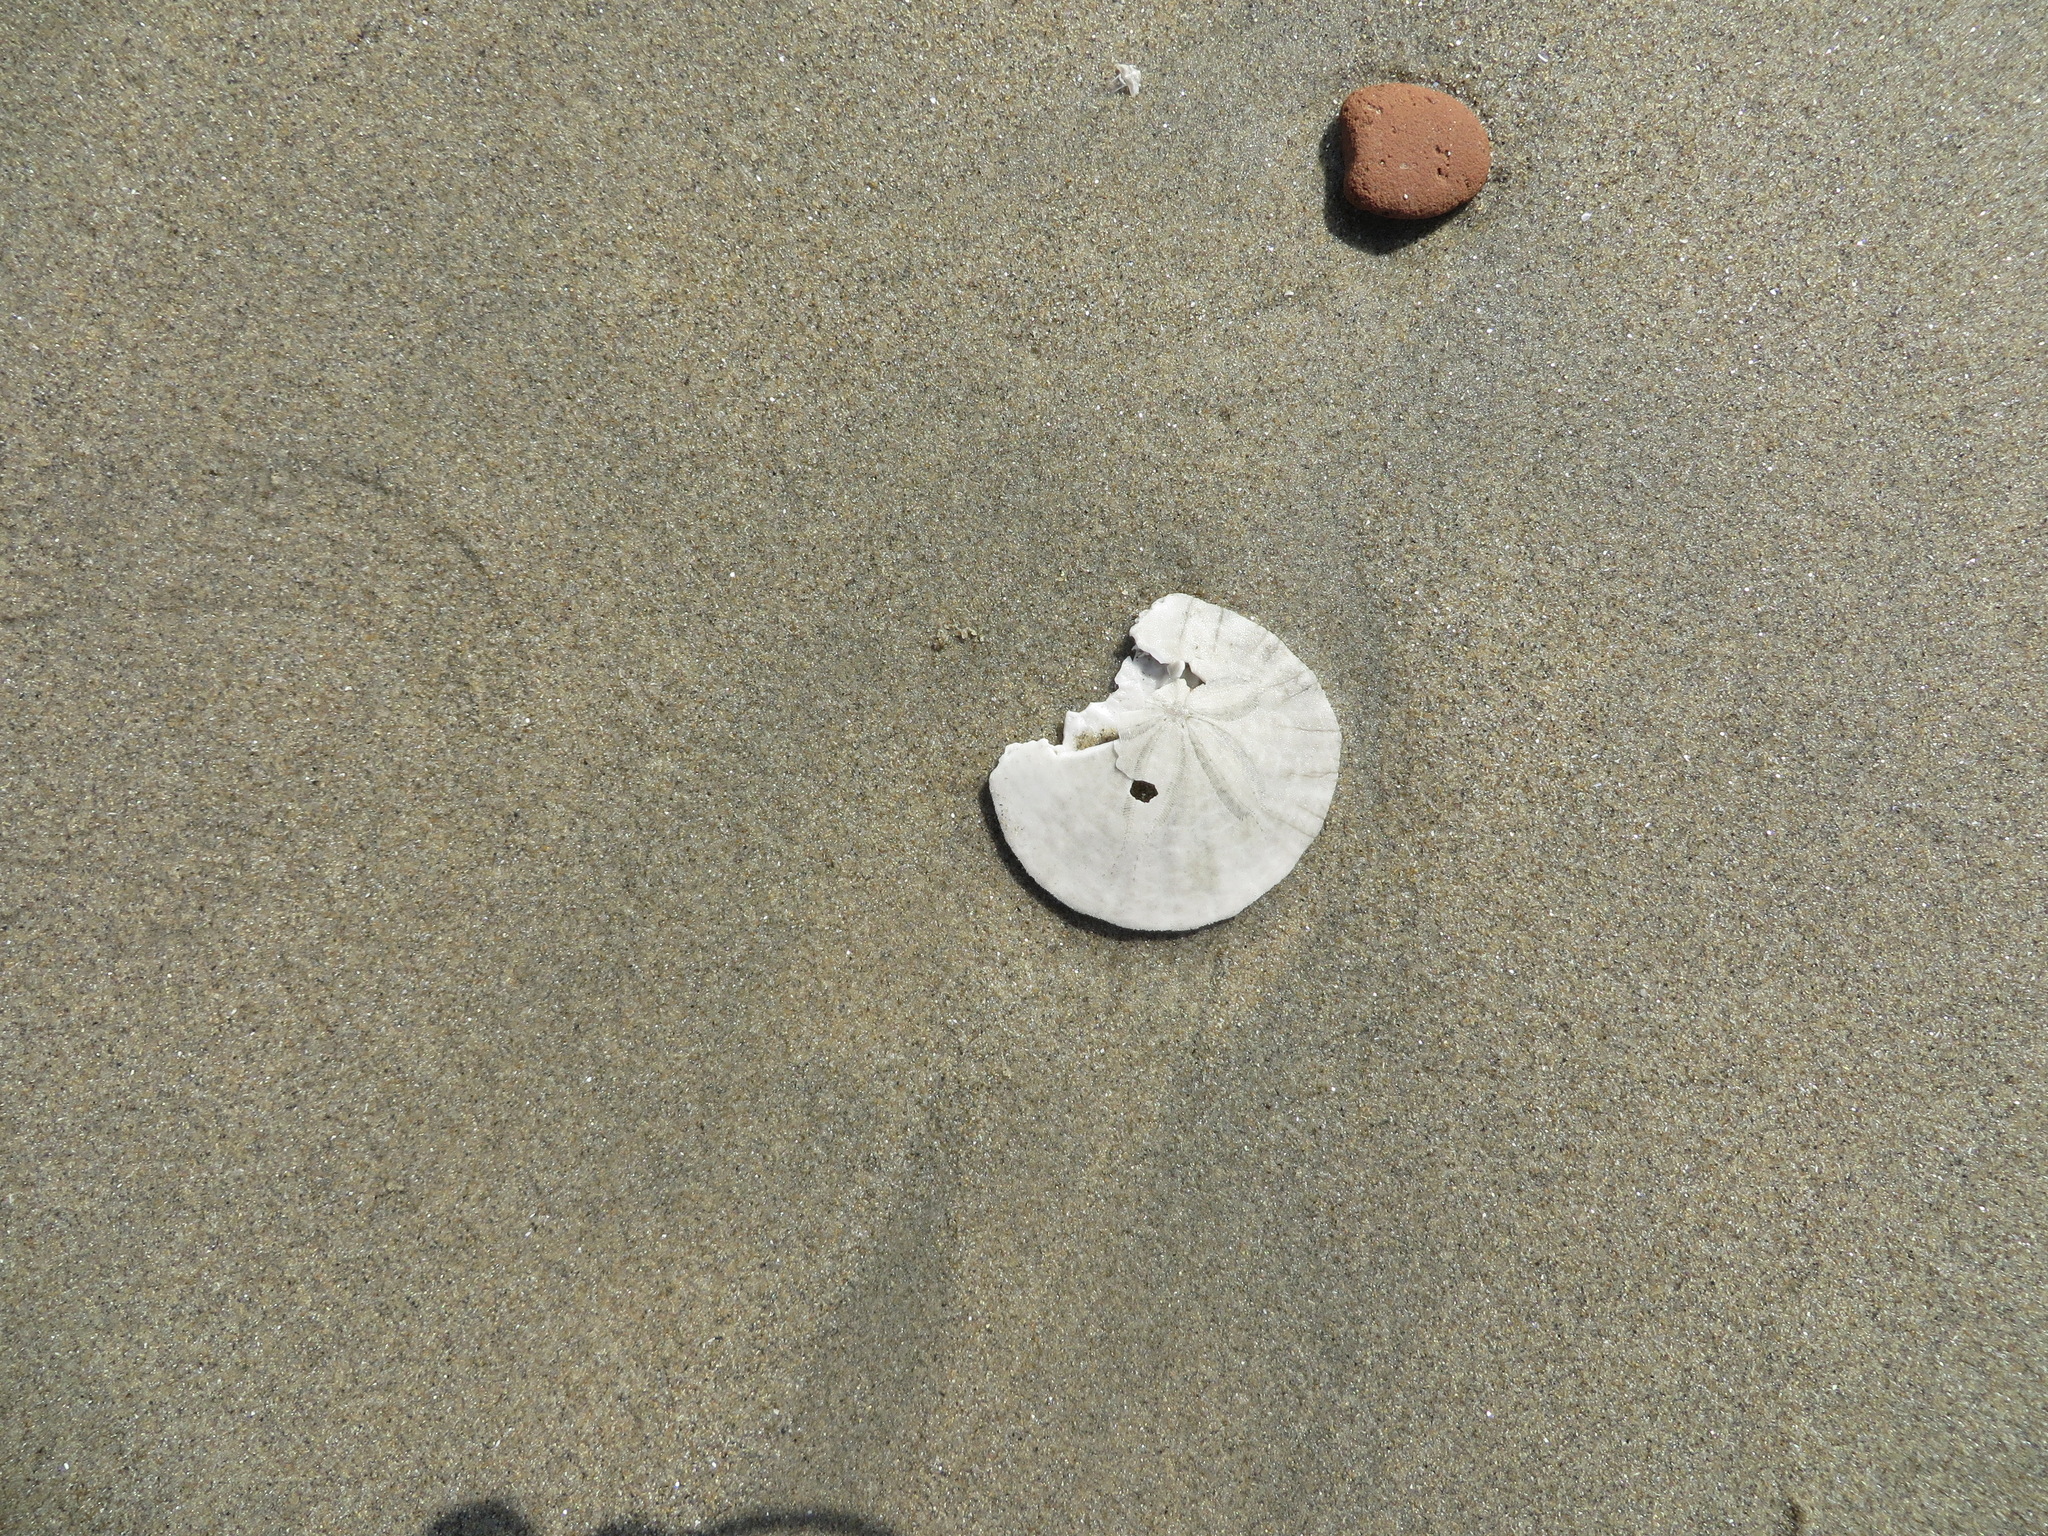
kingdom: Animalia
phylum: Echinodermata
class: Echinoidea
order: Echinolampadacea
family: Dendrasteridae
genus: Dendraster
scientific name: Dendraster excentricus
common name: Eccentric sand dollar sea urchin
